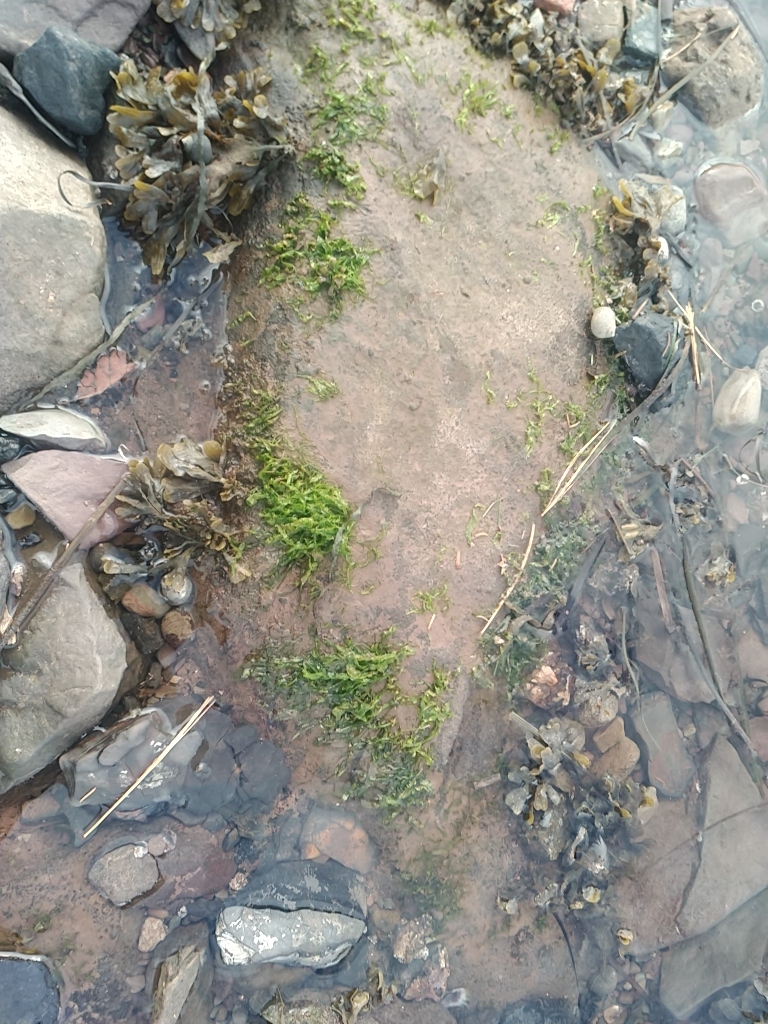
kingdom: Plantae
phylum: Chlorophyta
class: Ulvophyceae
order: Ulvales
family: Ulvaceae
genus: Ulva
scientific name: Ulva intestinalis
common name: Gut weed
